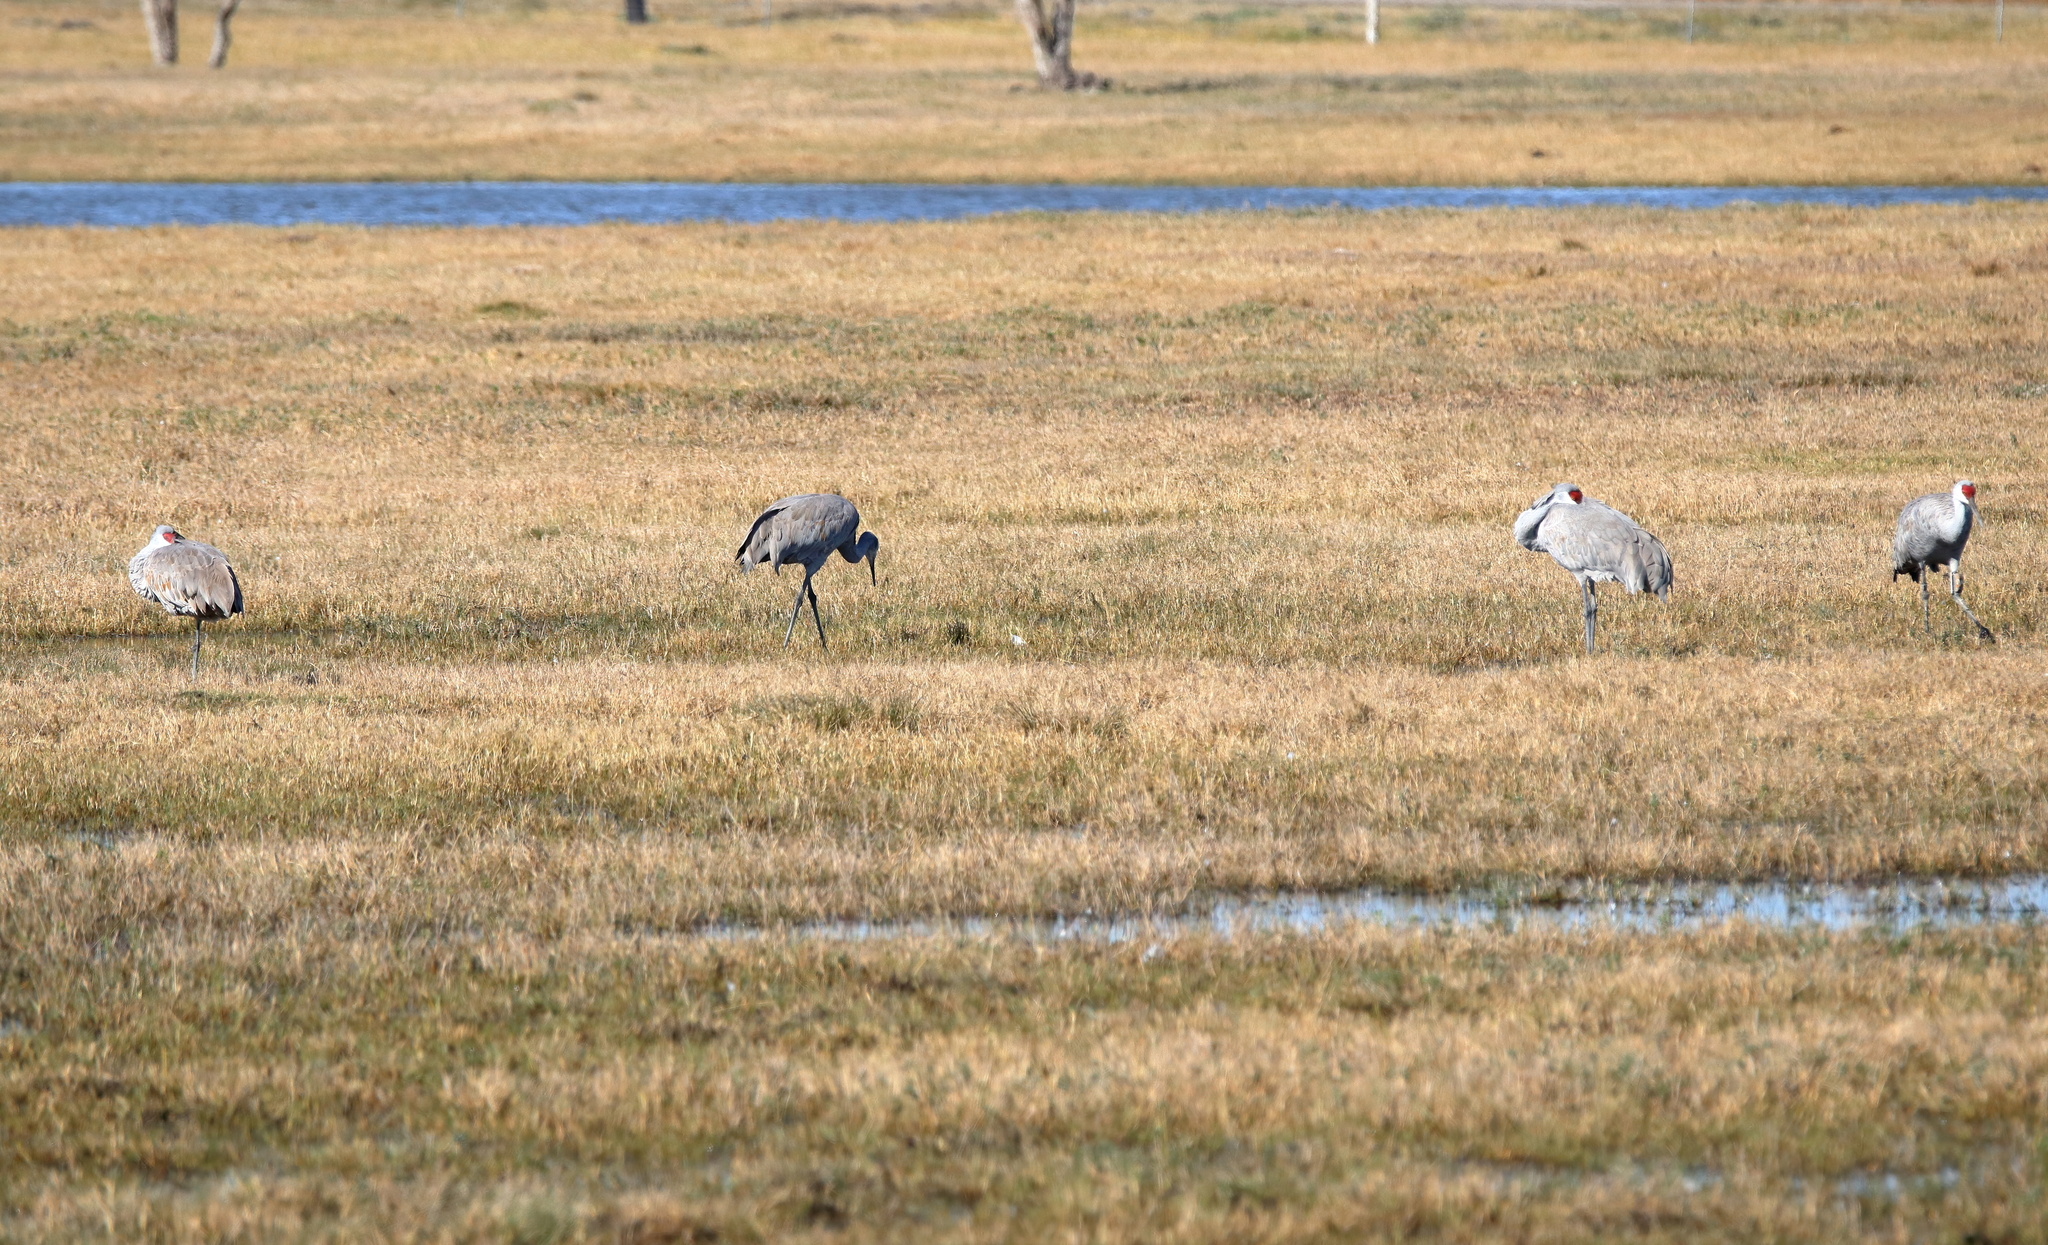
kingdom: Animalia
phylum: Chordata
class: Aves
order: Gruiformes
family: Gruidae
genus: Grus
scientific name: Grus canadensis
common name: Sandhill crane
